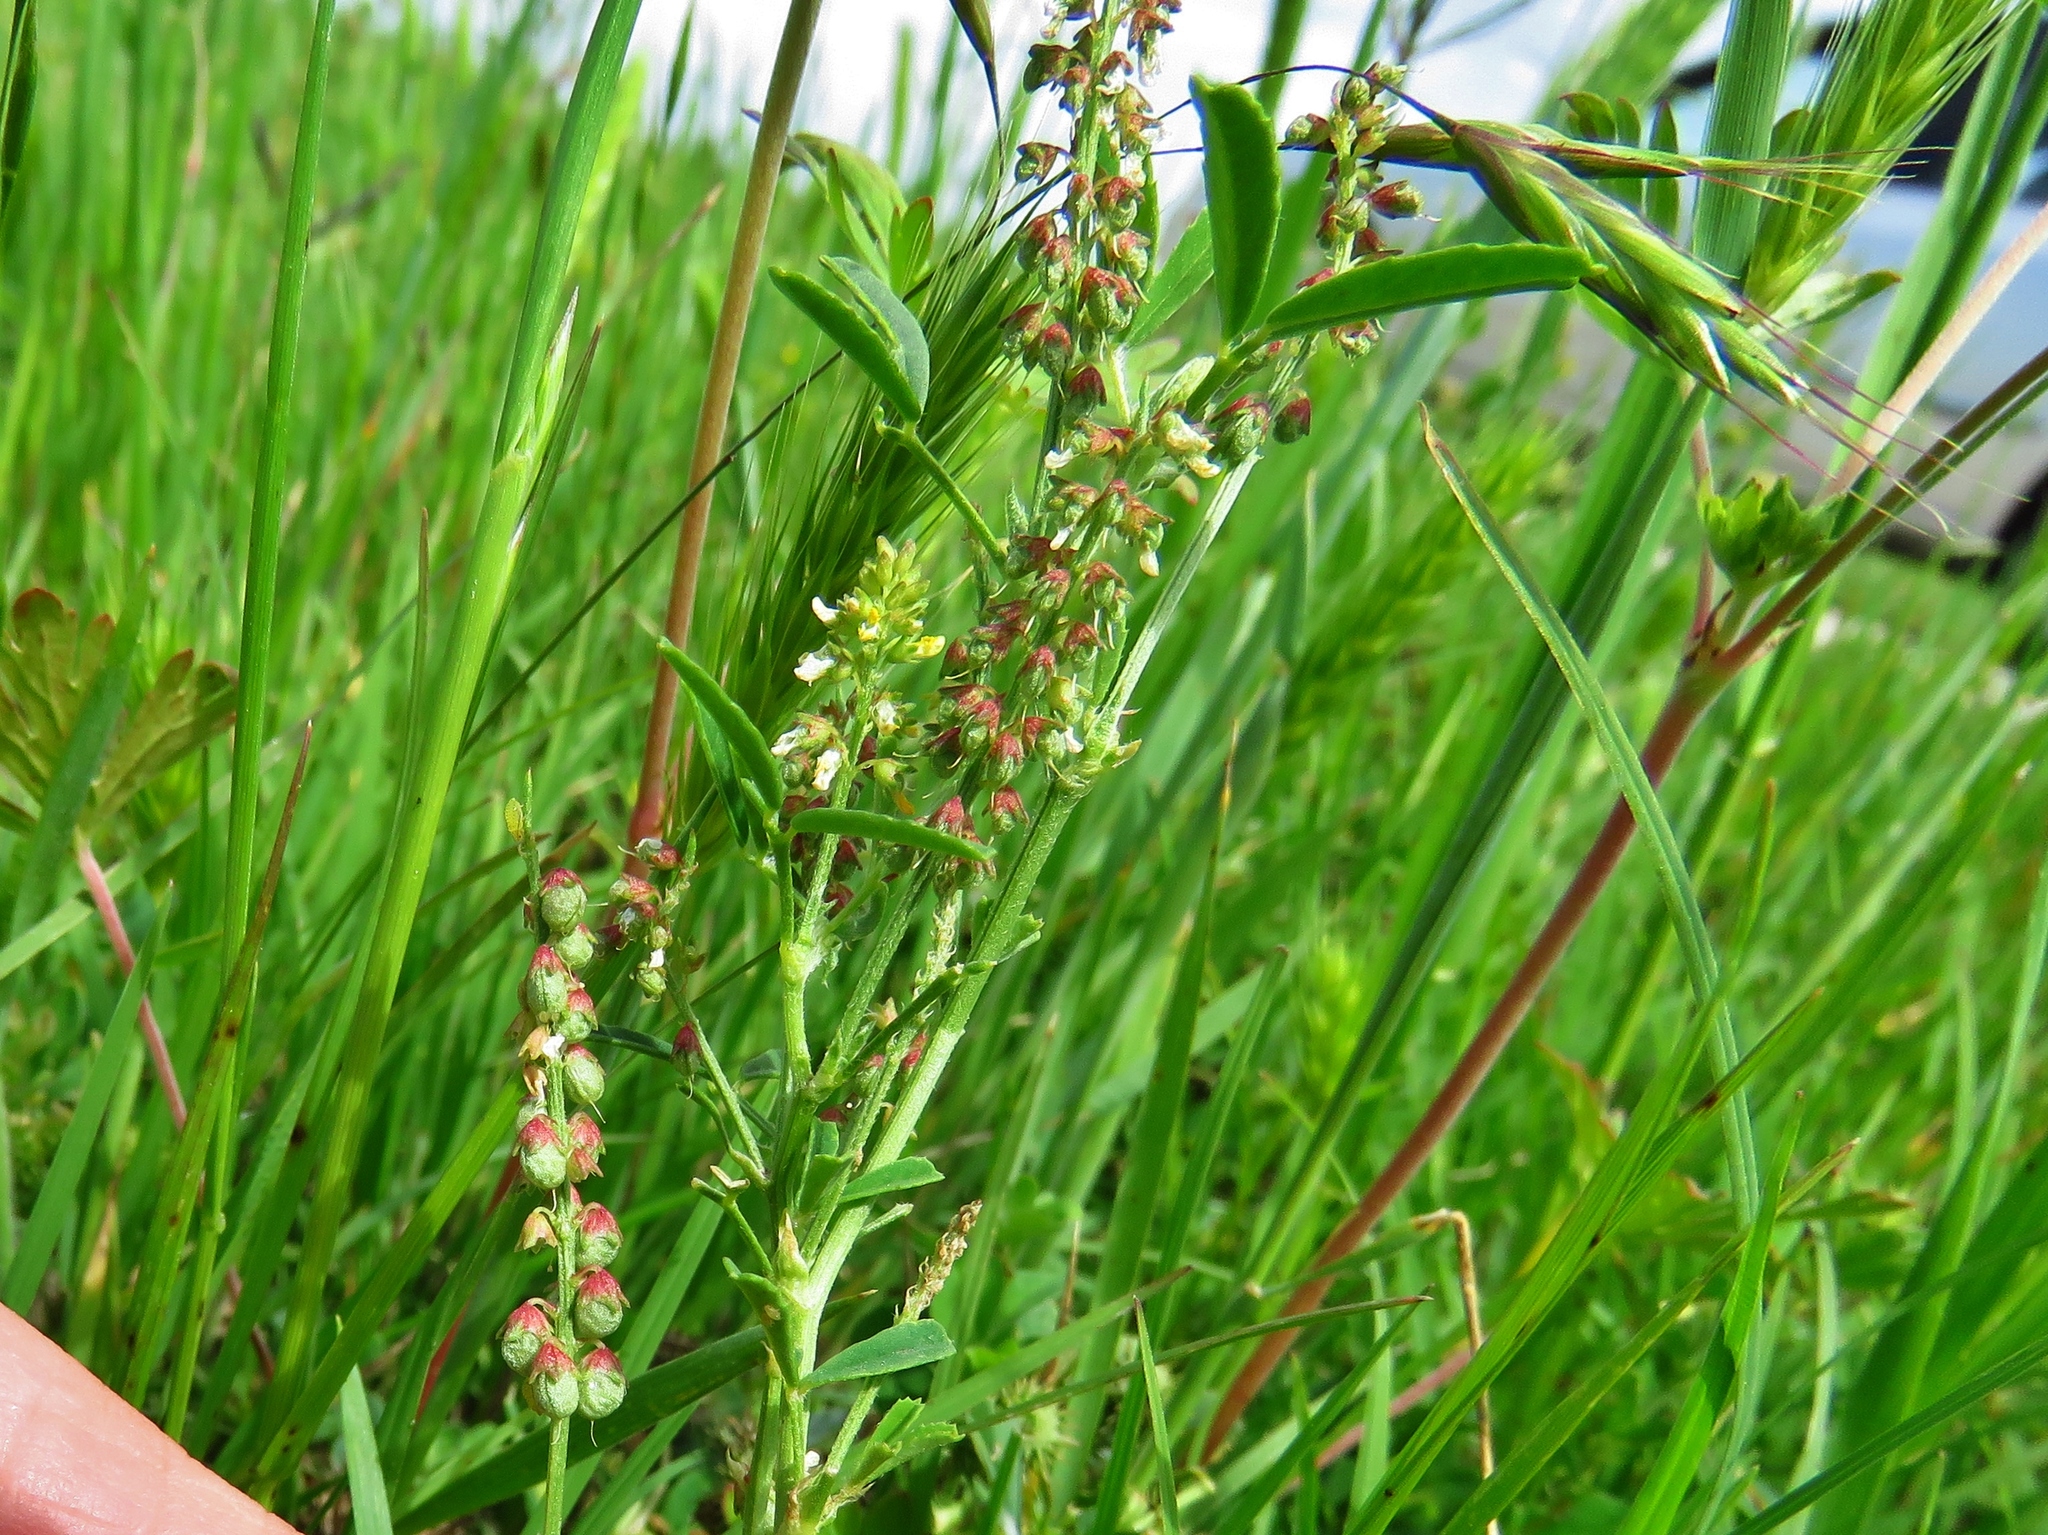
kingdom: Plantae
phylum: Tracheophyta
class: Magnoliopsida
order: Fabales
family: Fabaceae
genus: Melilotus
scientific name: Melilotus indicus
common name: Small melilot
